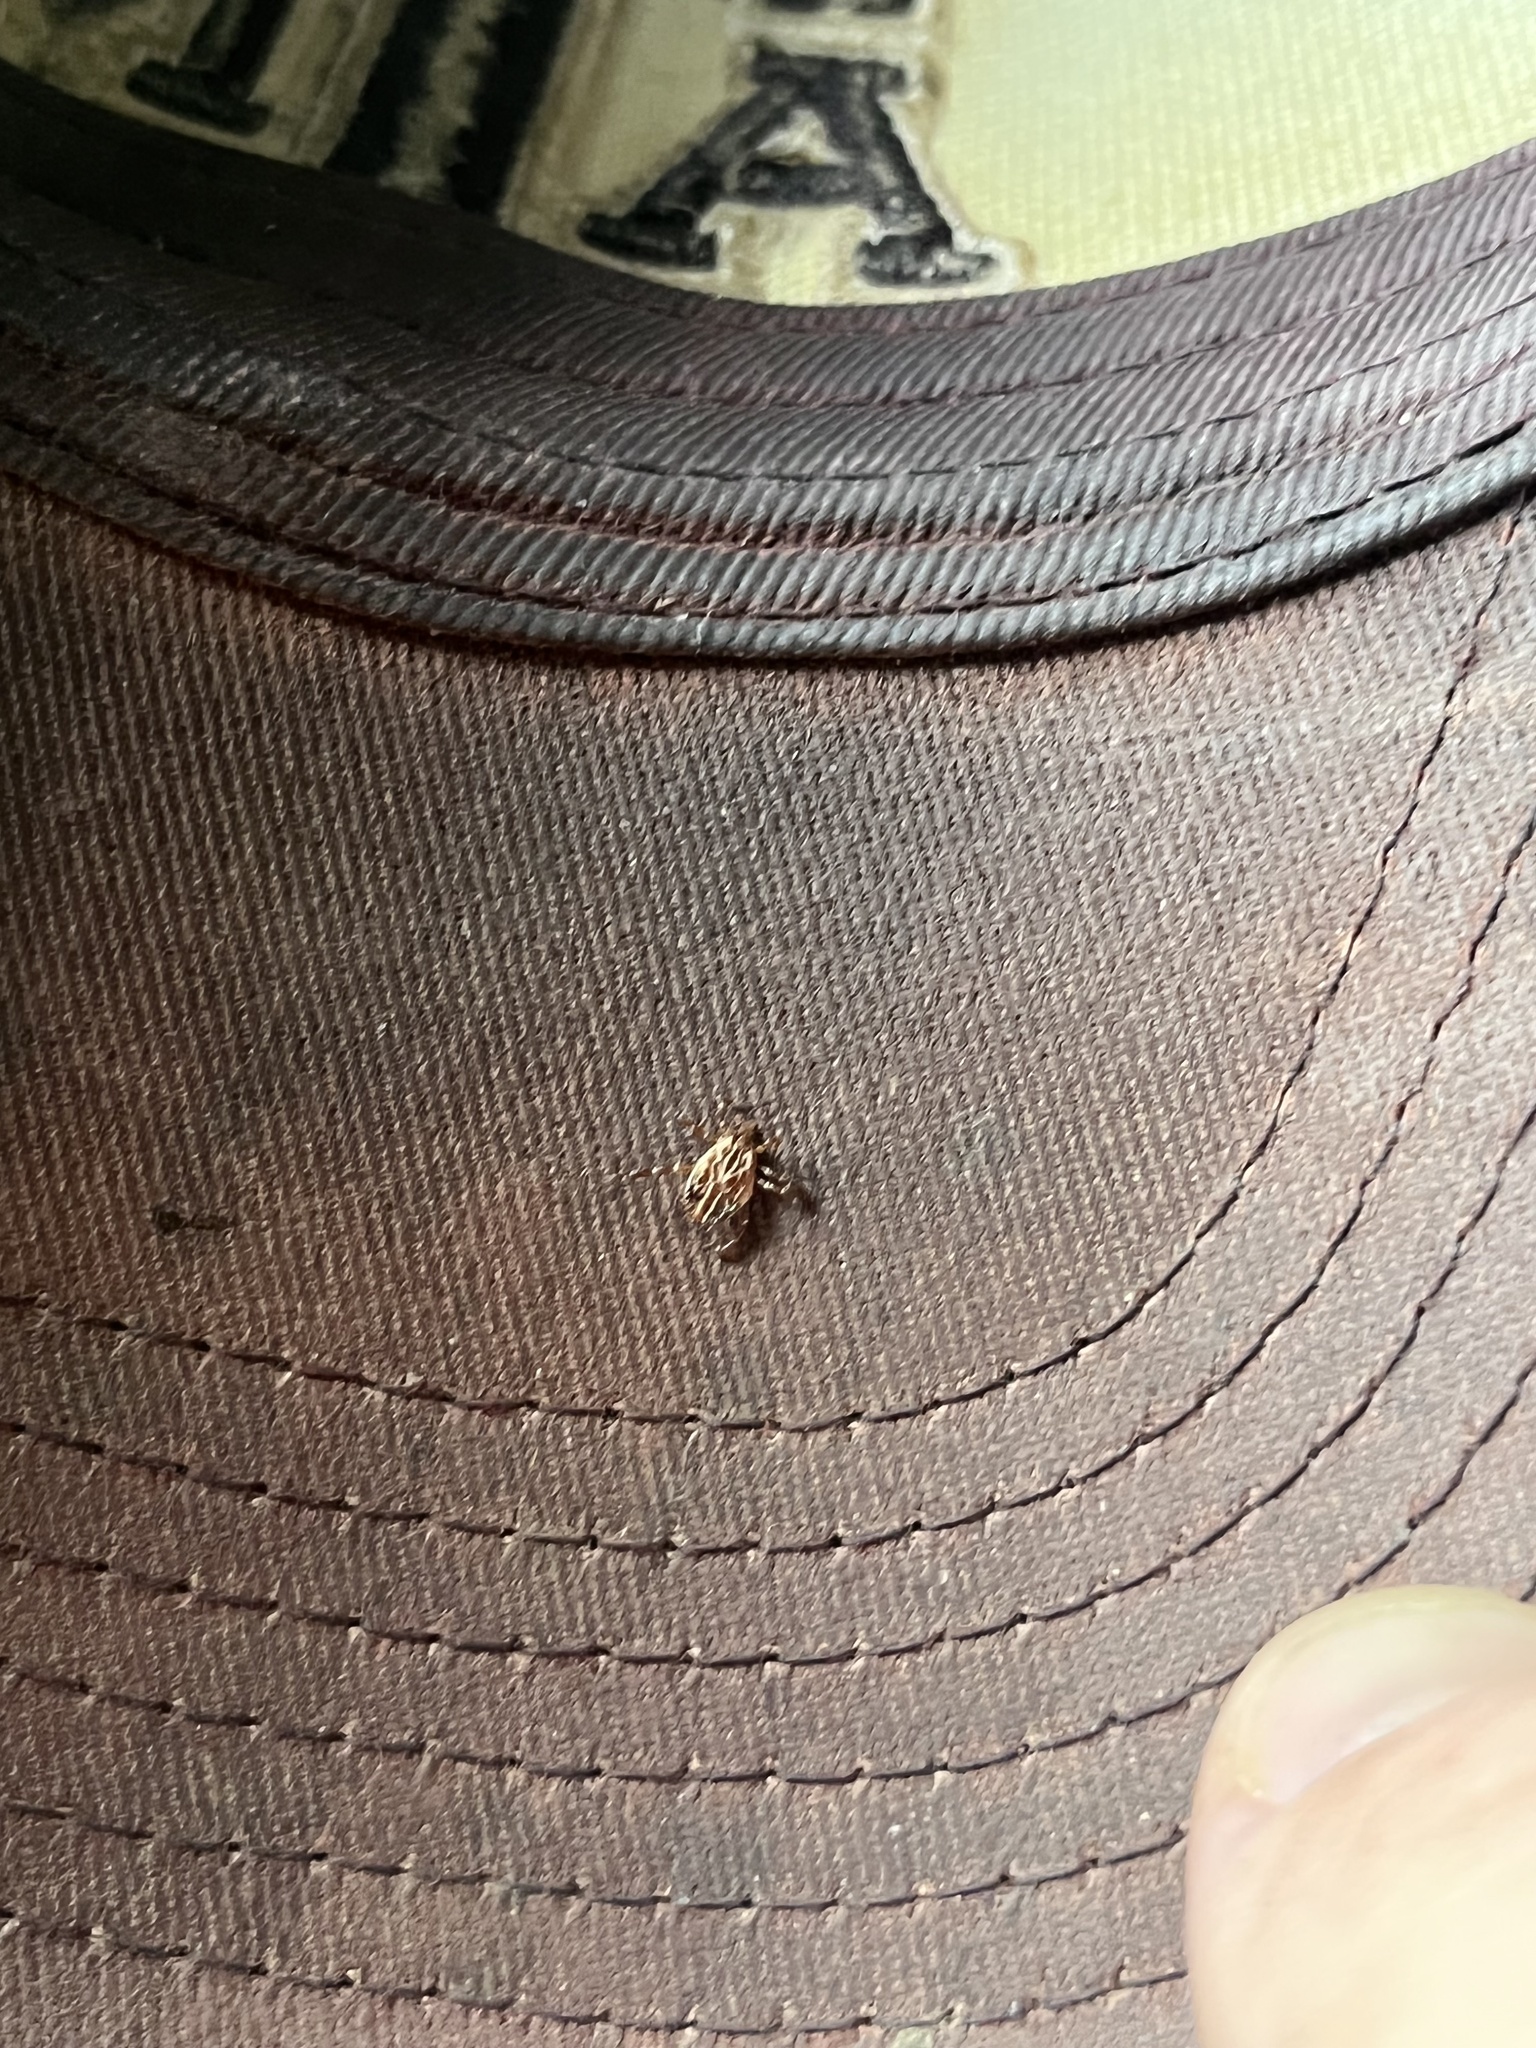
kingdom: Animalia
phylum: Arthropoda
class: Arachnida
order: Ixodida
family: Ixodidae
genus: Amblyomma
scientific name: Amblyomma maculatum
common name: Gulf coast tick
